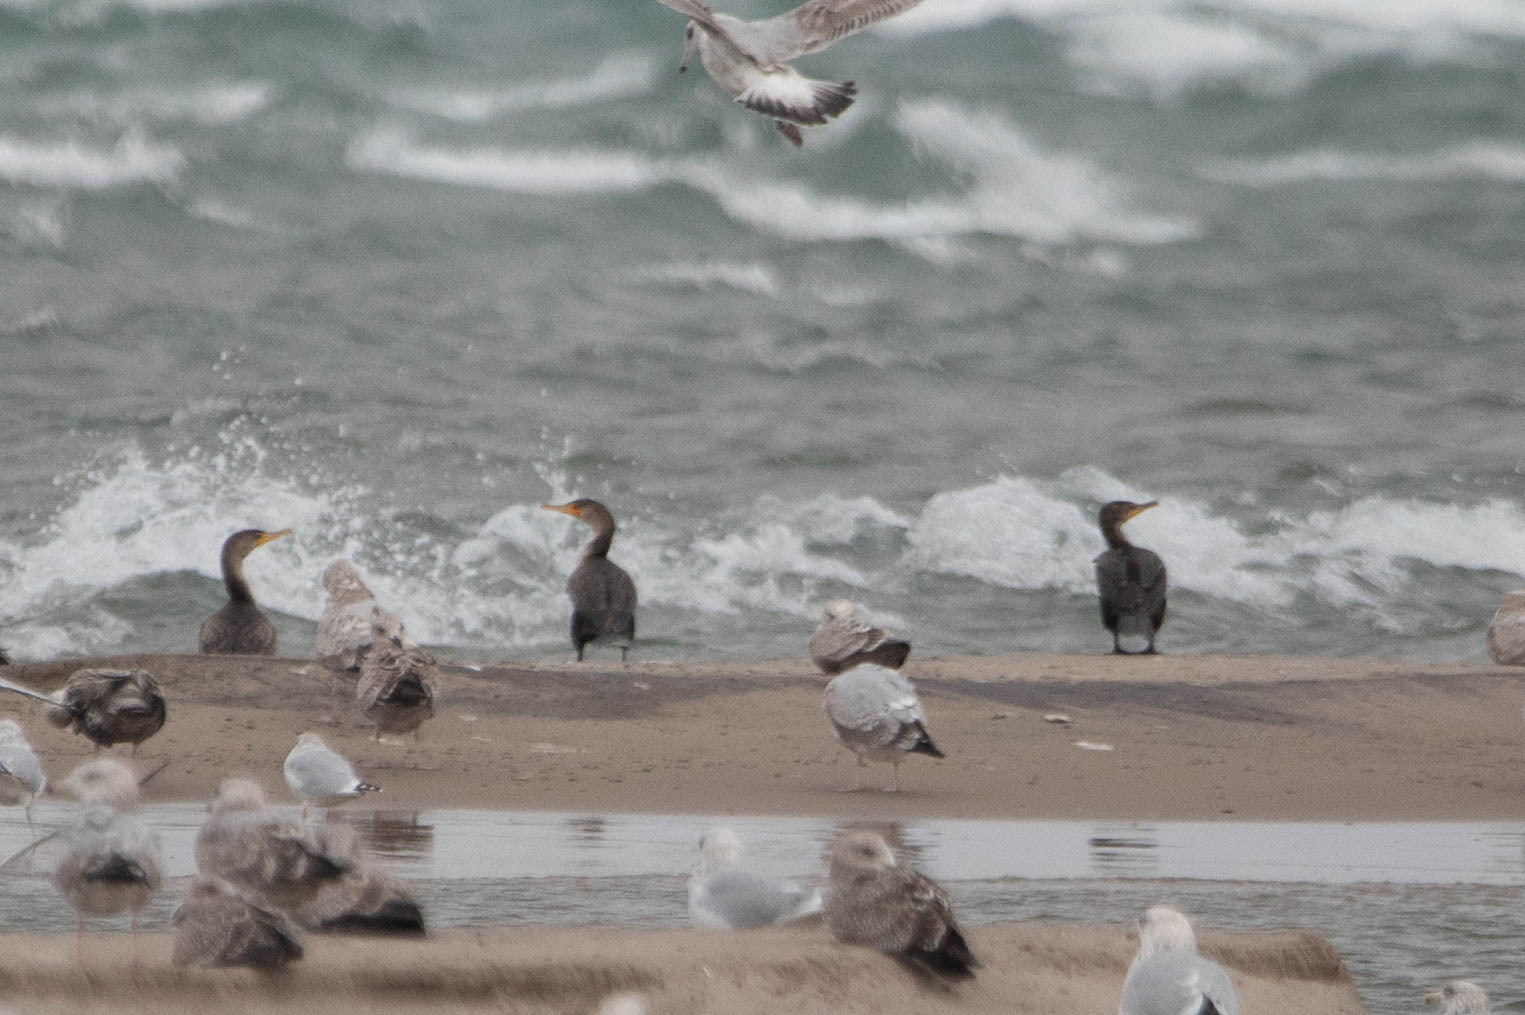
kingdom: Animalia
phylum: Chordata
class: Aves
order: Suliformes
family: Phalacrocoracidae
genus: Phalacrocorax
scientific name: Phalacrocorax auritus
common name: Double-crested cormorant
